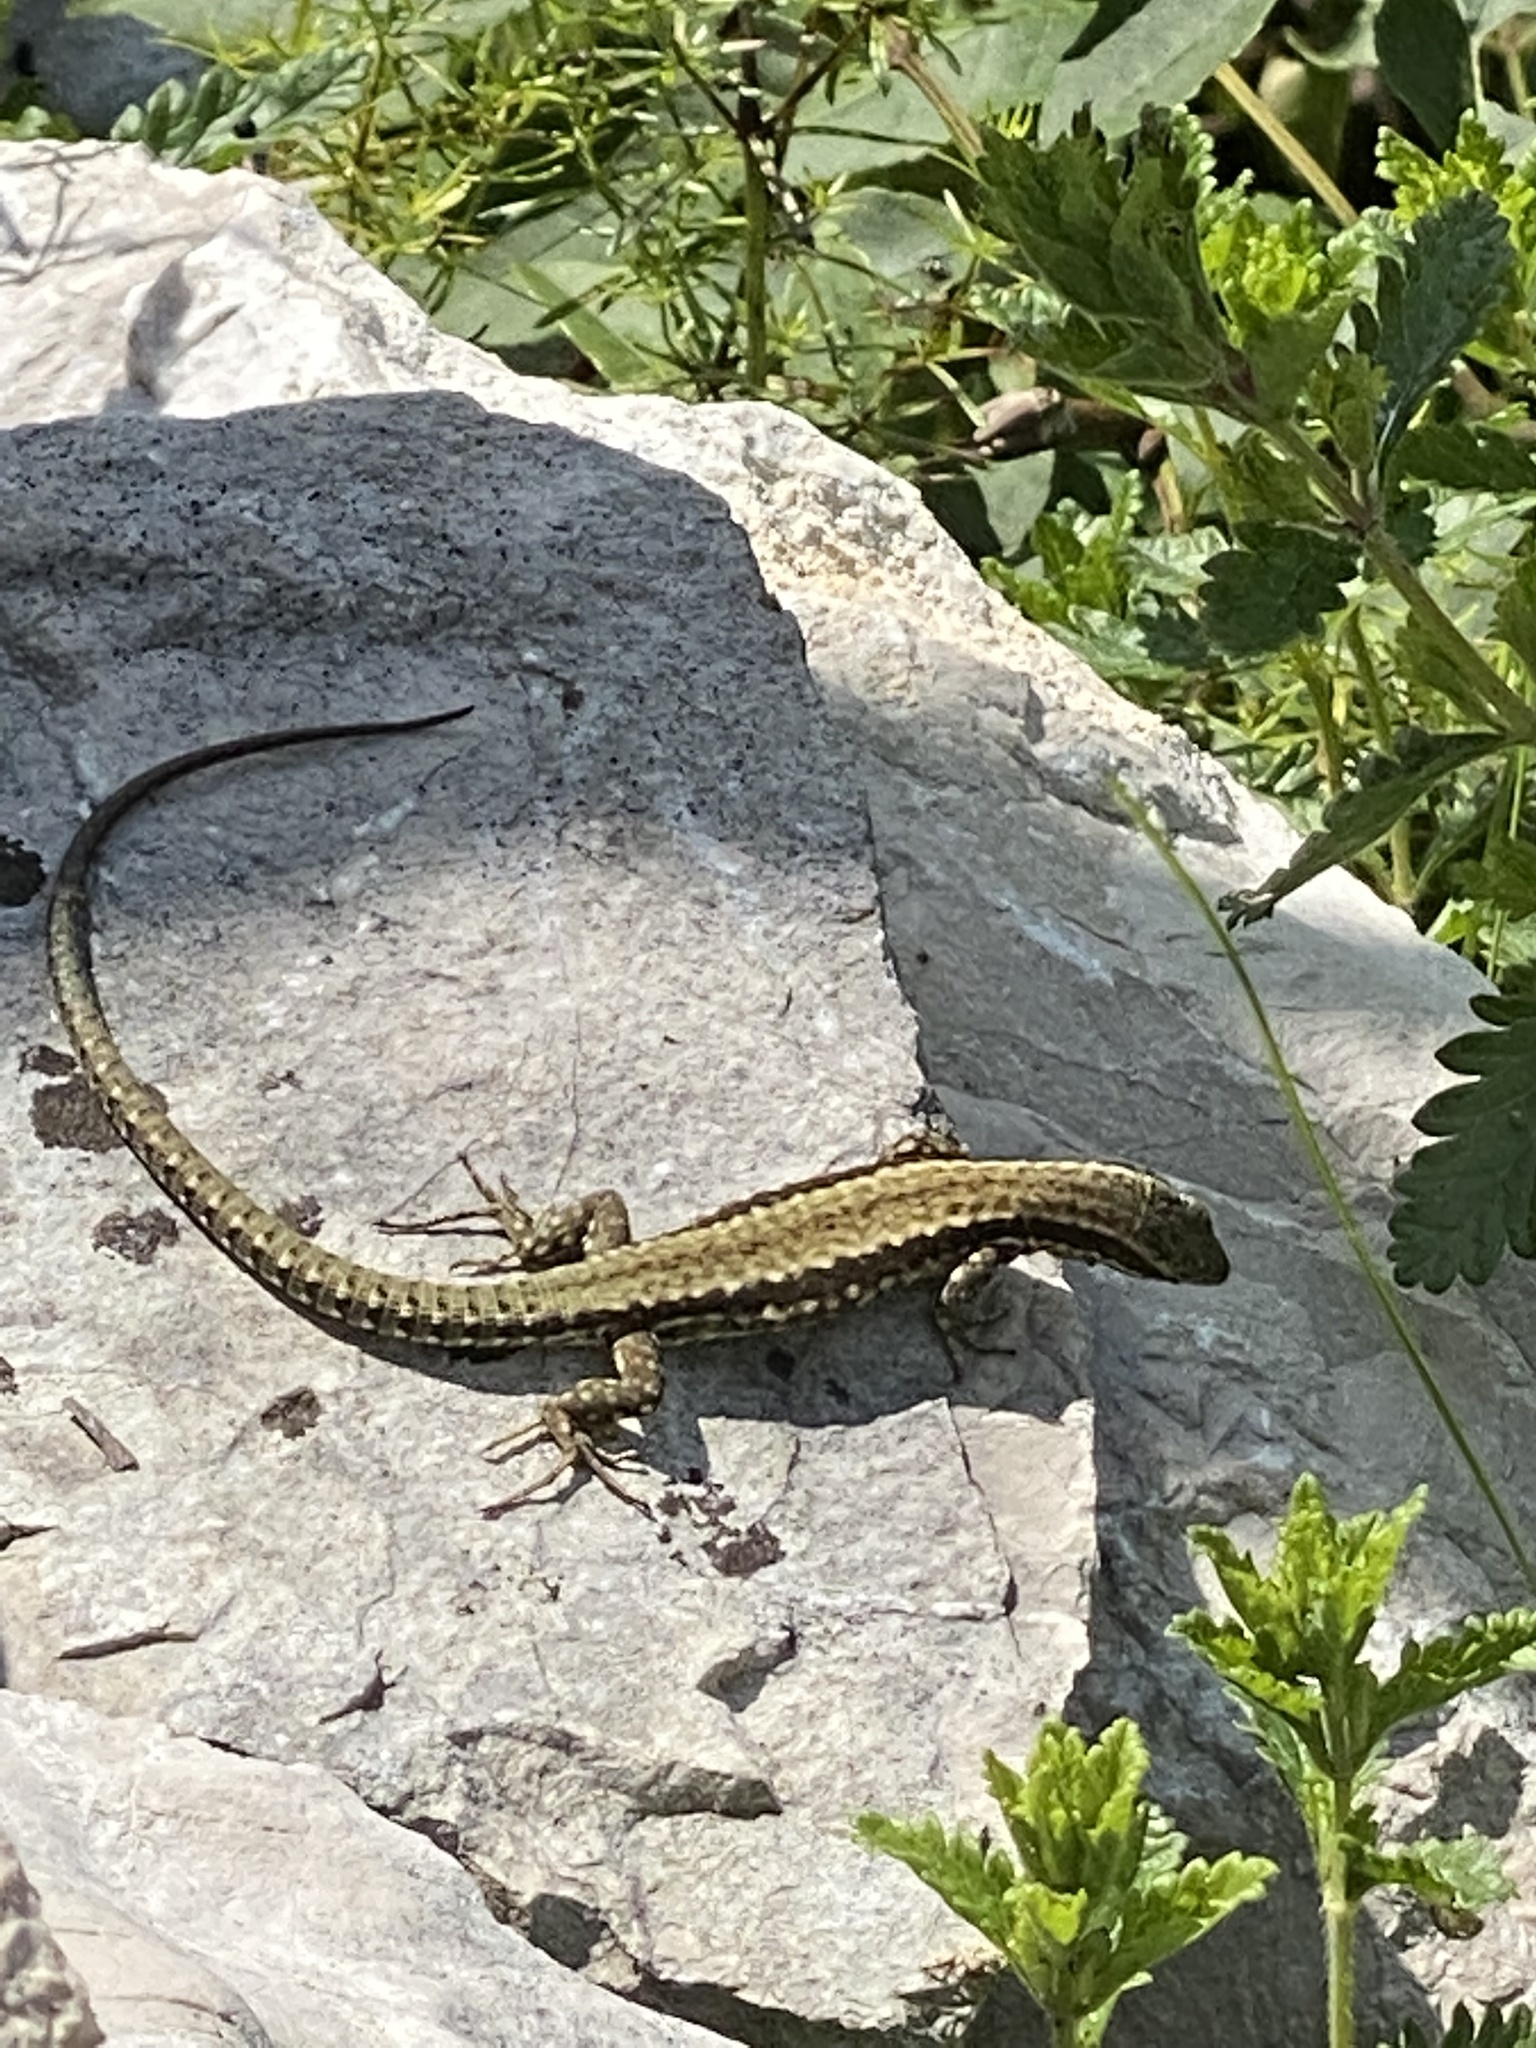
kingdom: Animalia
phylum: Chordata
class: Squamata
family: Lacertidae
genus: Podarcis
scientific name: Podarcis muralis
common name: Common wall lizard
